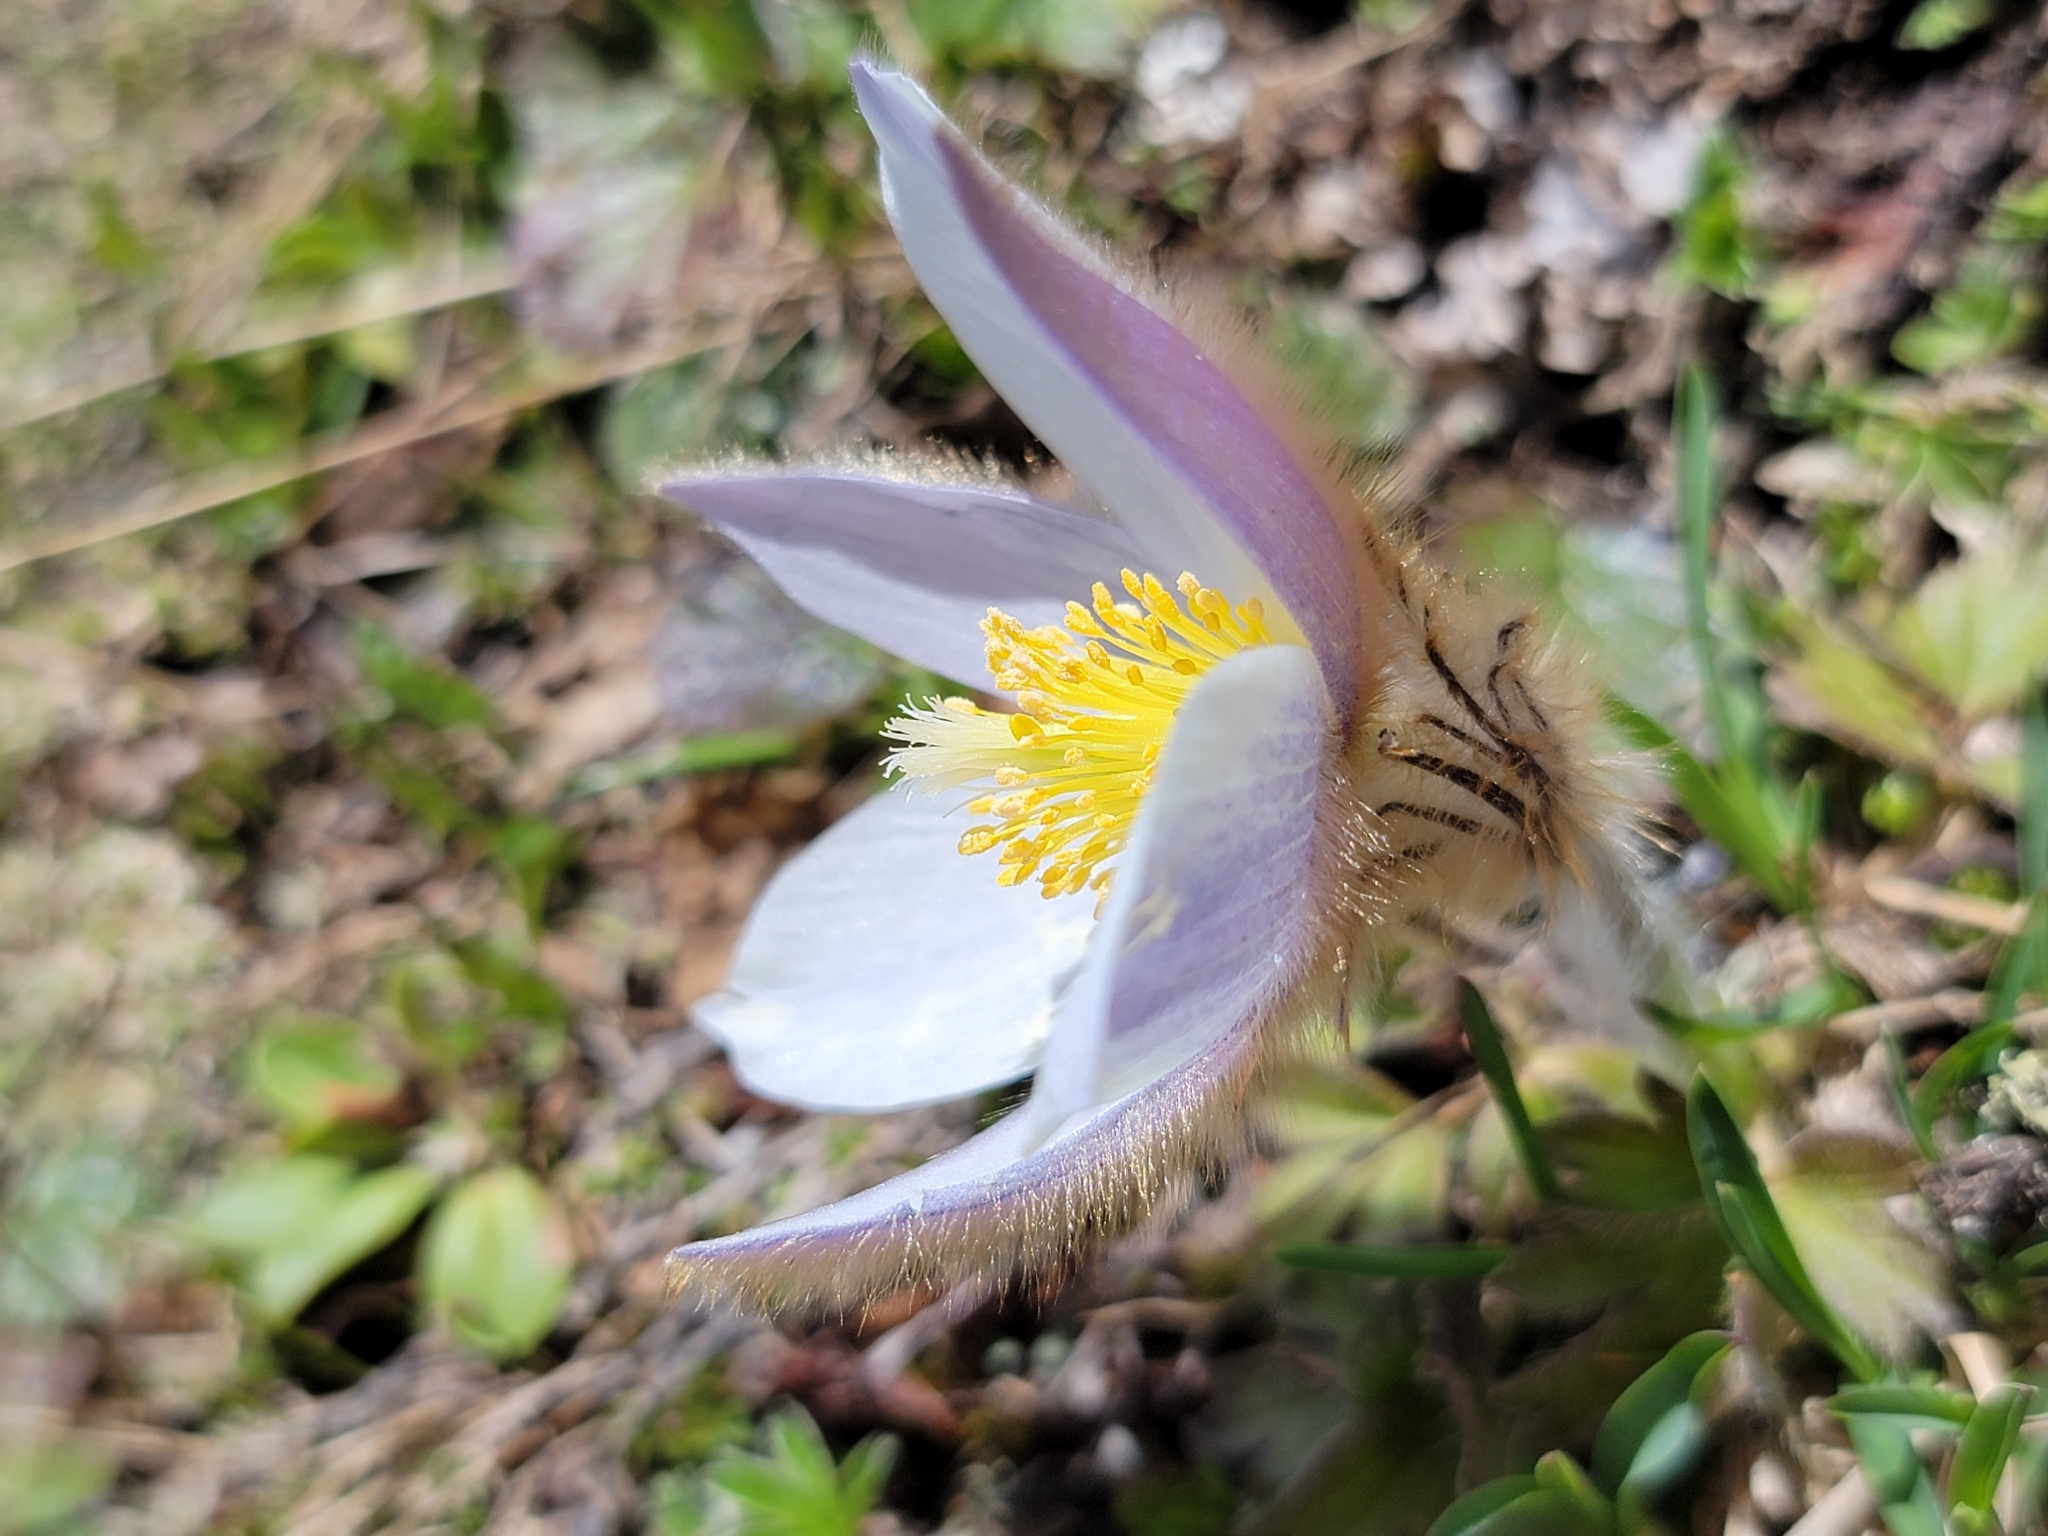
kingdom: Plantae
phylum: Tracheophyta
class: Magnoliopsida
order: Ranunculales
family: Ranunculaceae
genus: Pulsatilla
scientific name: Pulsatilla vernalis
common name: Spring pasque flower
